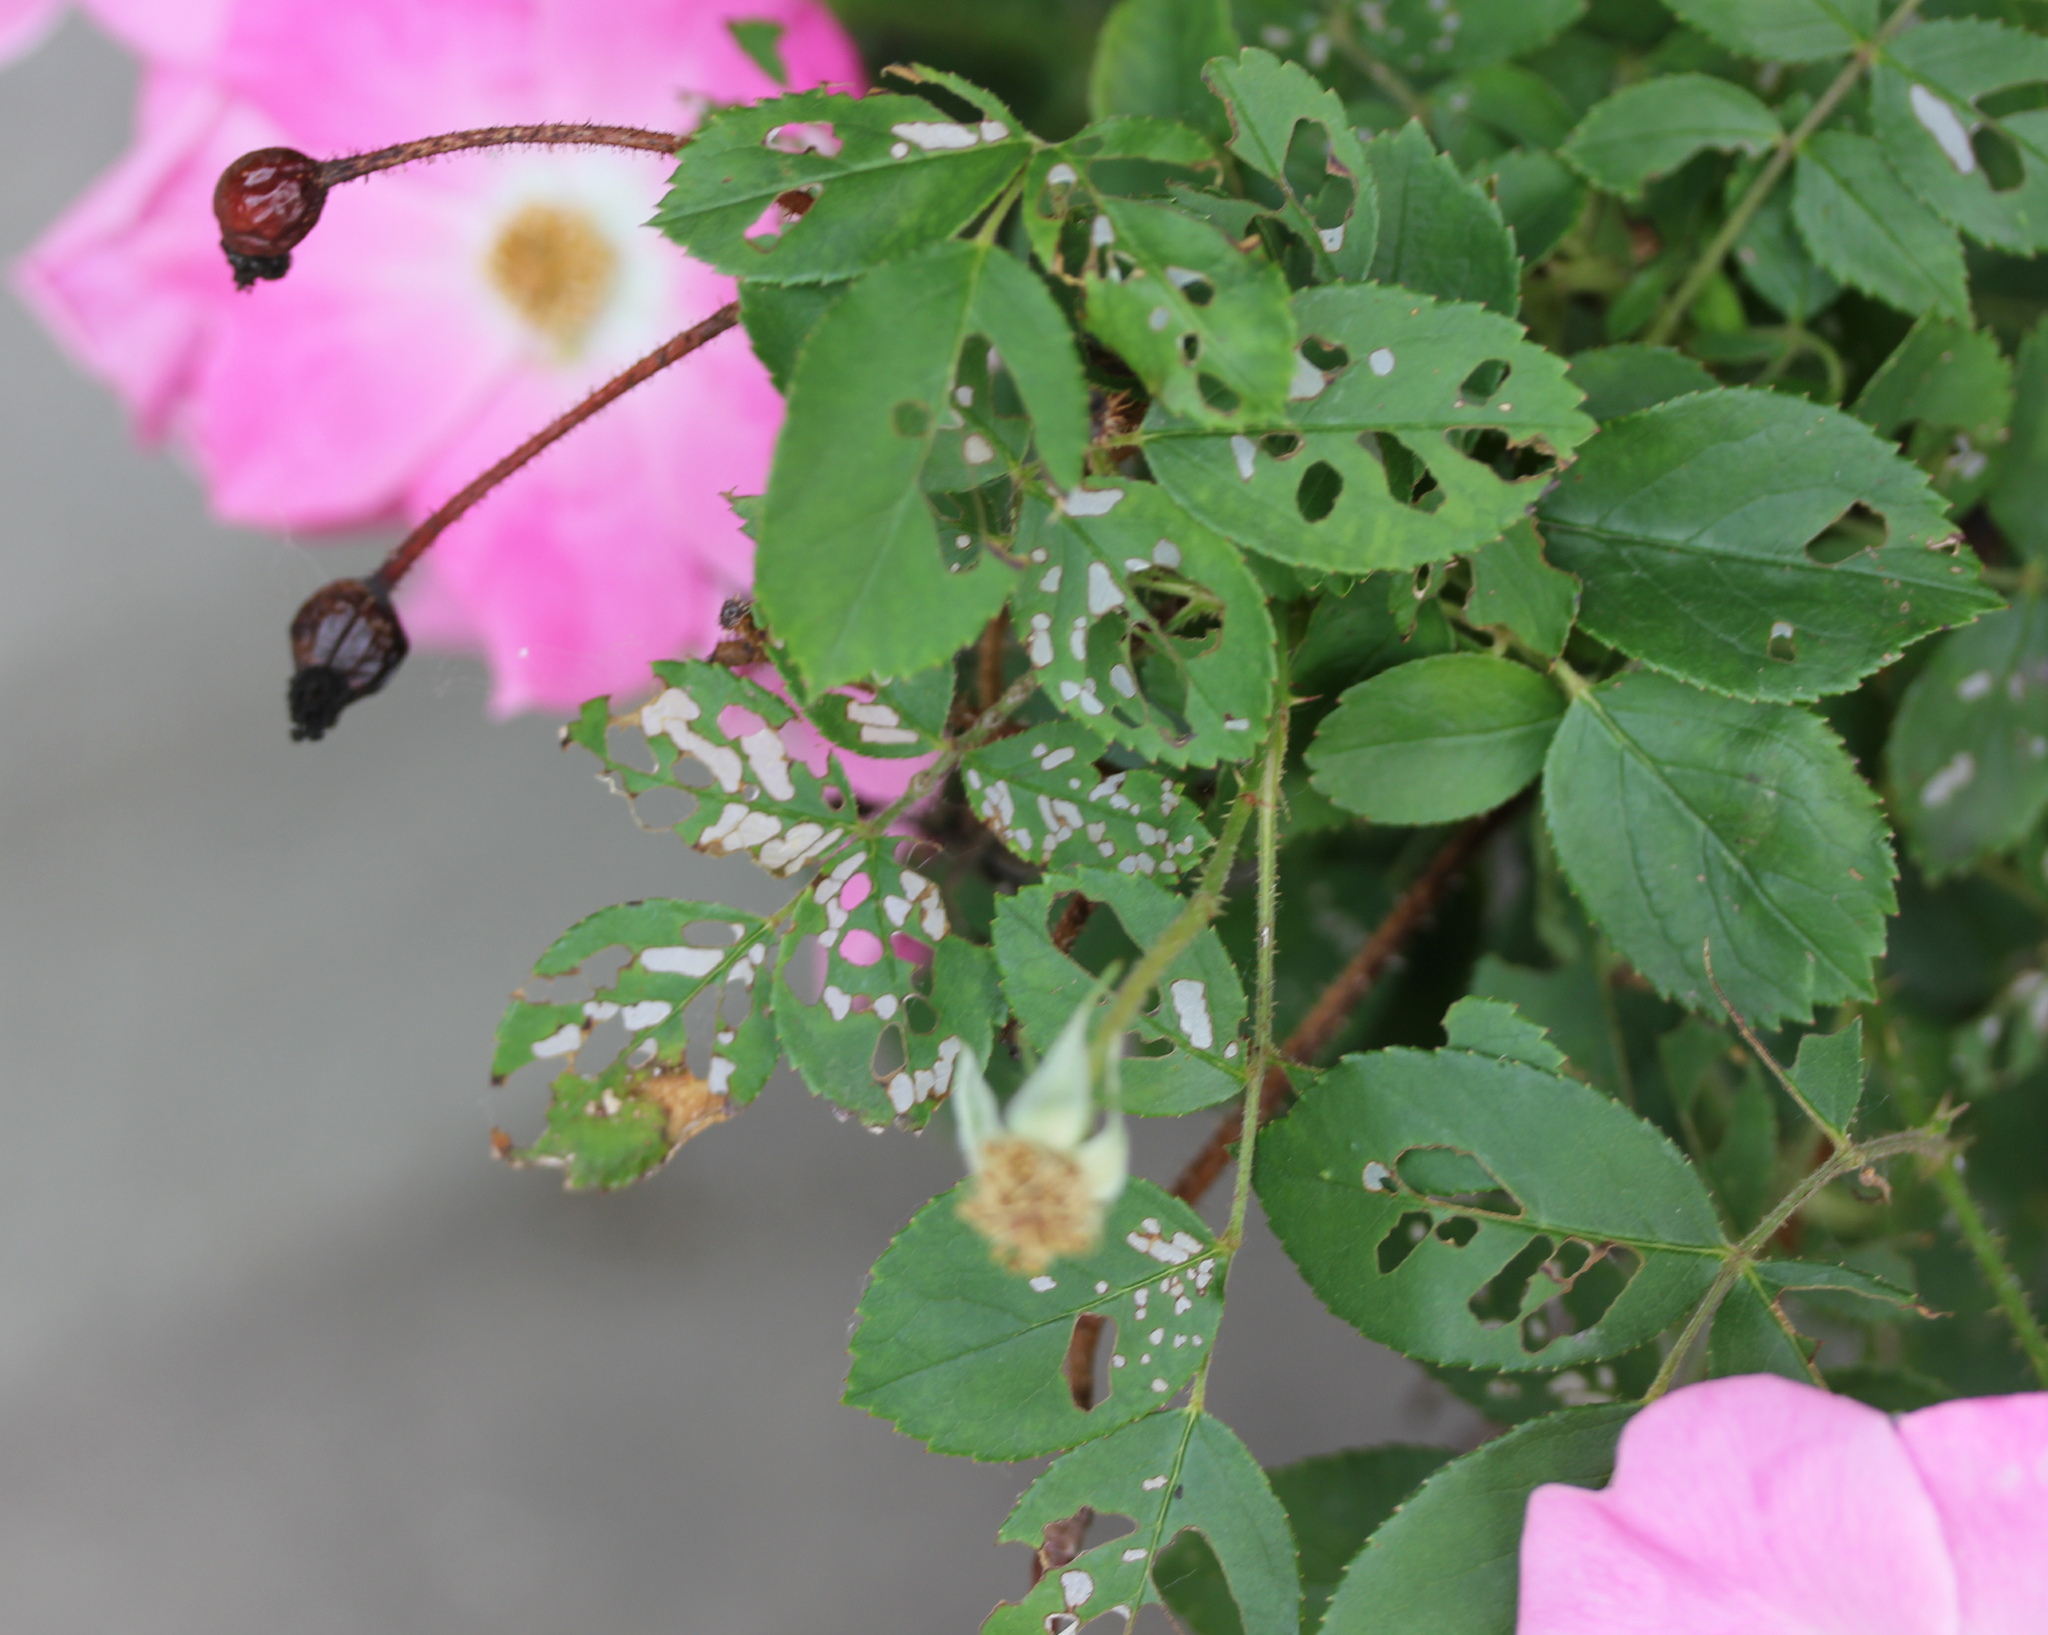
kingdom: Animalia
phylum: Arthropoda
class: Insecta
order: Hymenoptera
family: Tenthredinidae
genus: Cladius
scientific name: Cladius pectinicornis
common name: Sawfly
